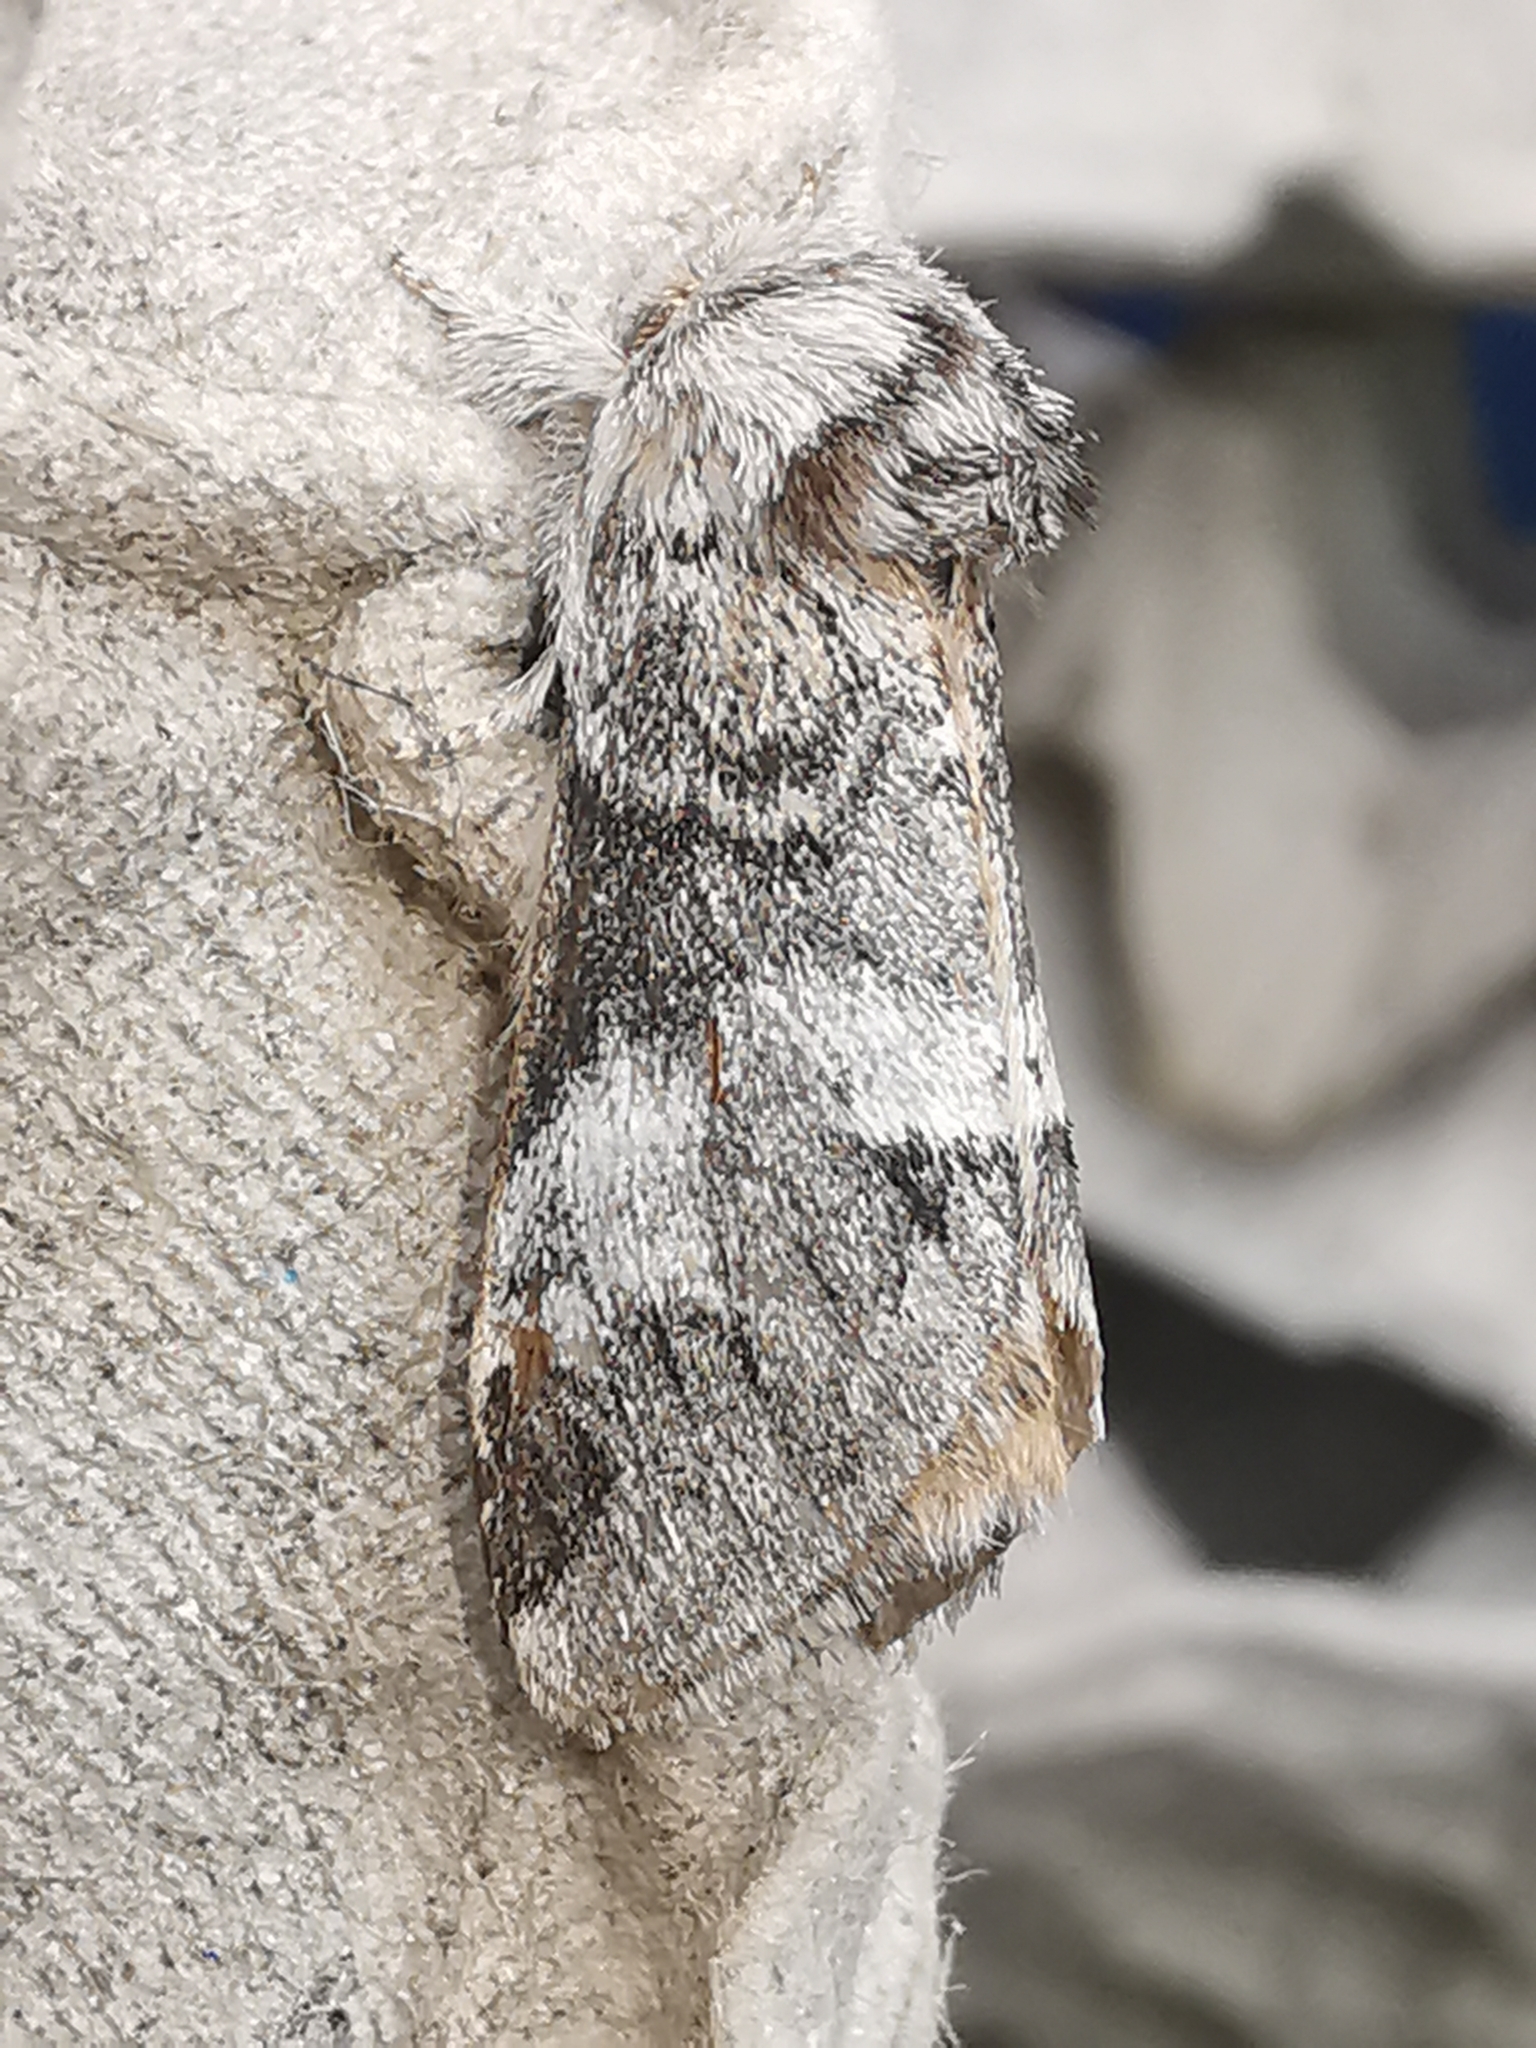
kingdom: Animalia
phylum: Arthropoda
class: Insecta
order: Lepidoptera
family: Notodontidae
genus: Drymonia
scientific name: Drymonia dodonaea
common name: Marbled brown
